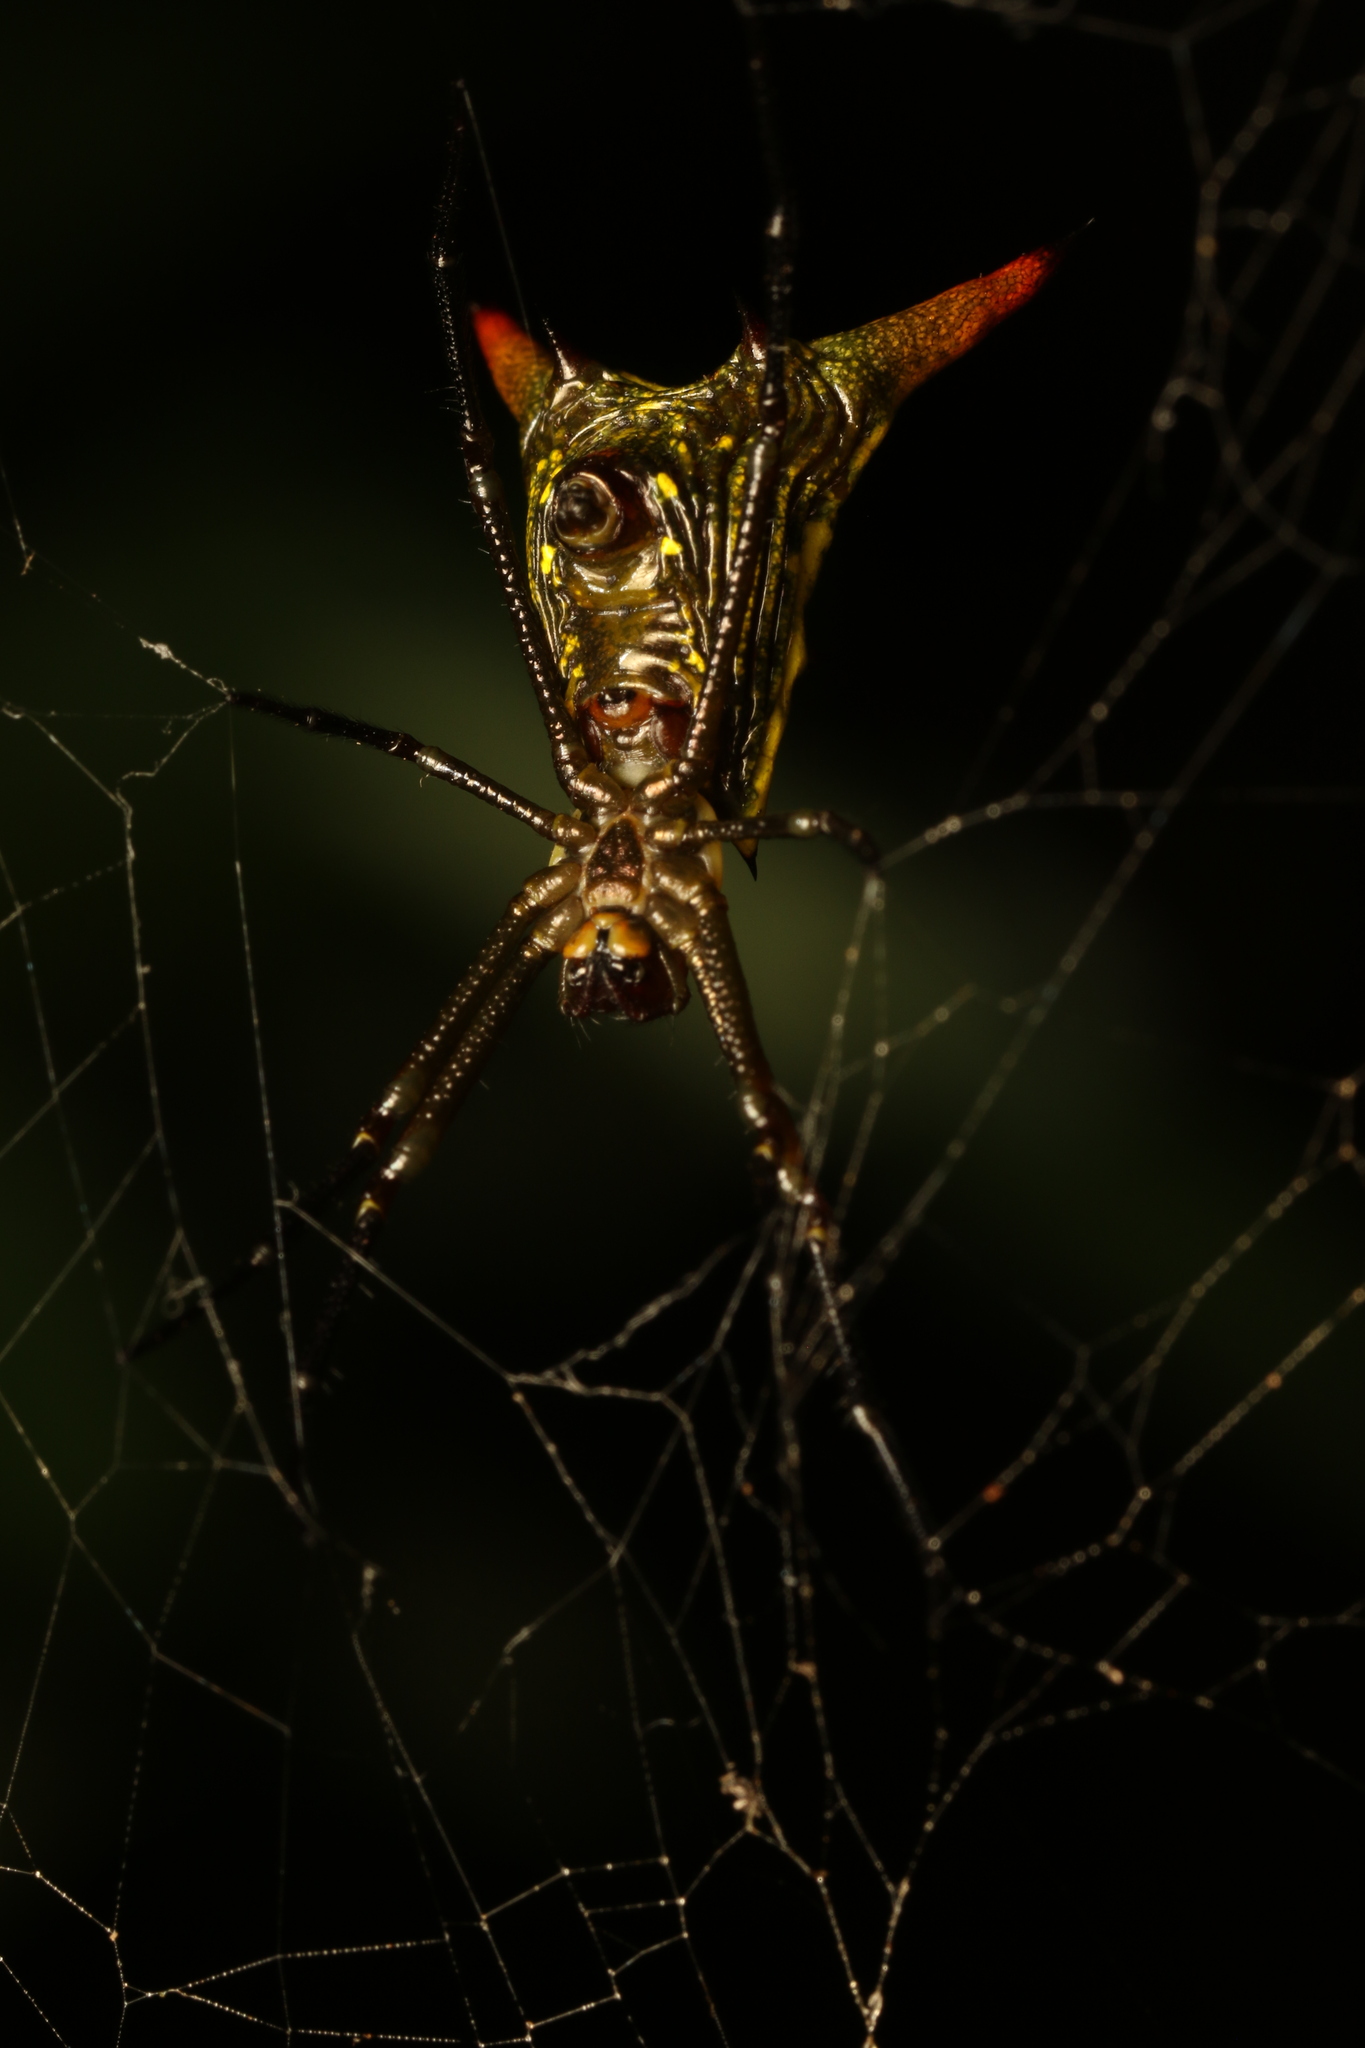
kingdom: Animalia
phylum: Arthropoda
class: Arachnida
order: Araneae
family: Araneidae
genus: Micrathena
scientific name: Micrathena crassispina
